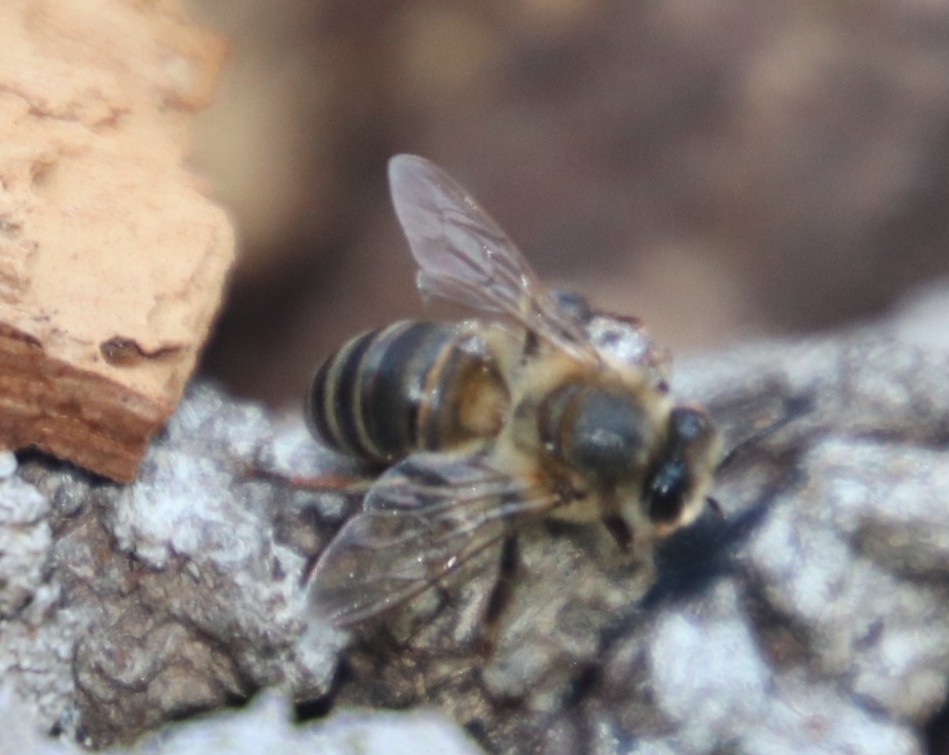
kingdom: Animalia
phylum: Arthropoda
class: Insecta
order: Hymenoptera
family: Apidae
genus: Apis
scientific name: Apis mellifera
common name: Honey bee
